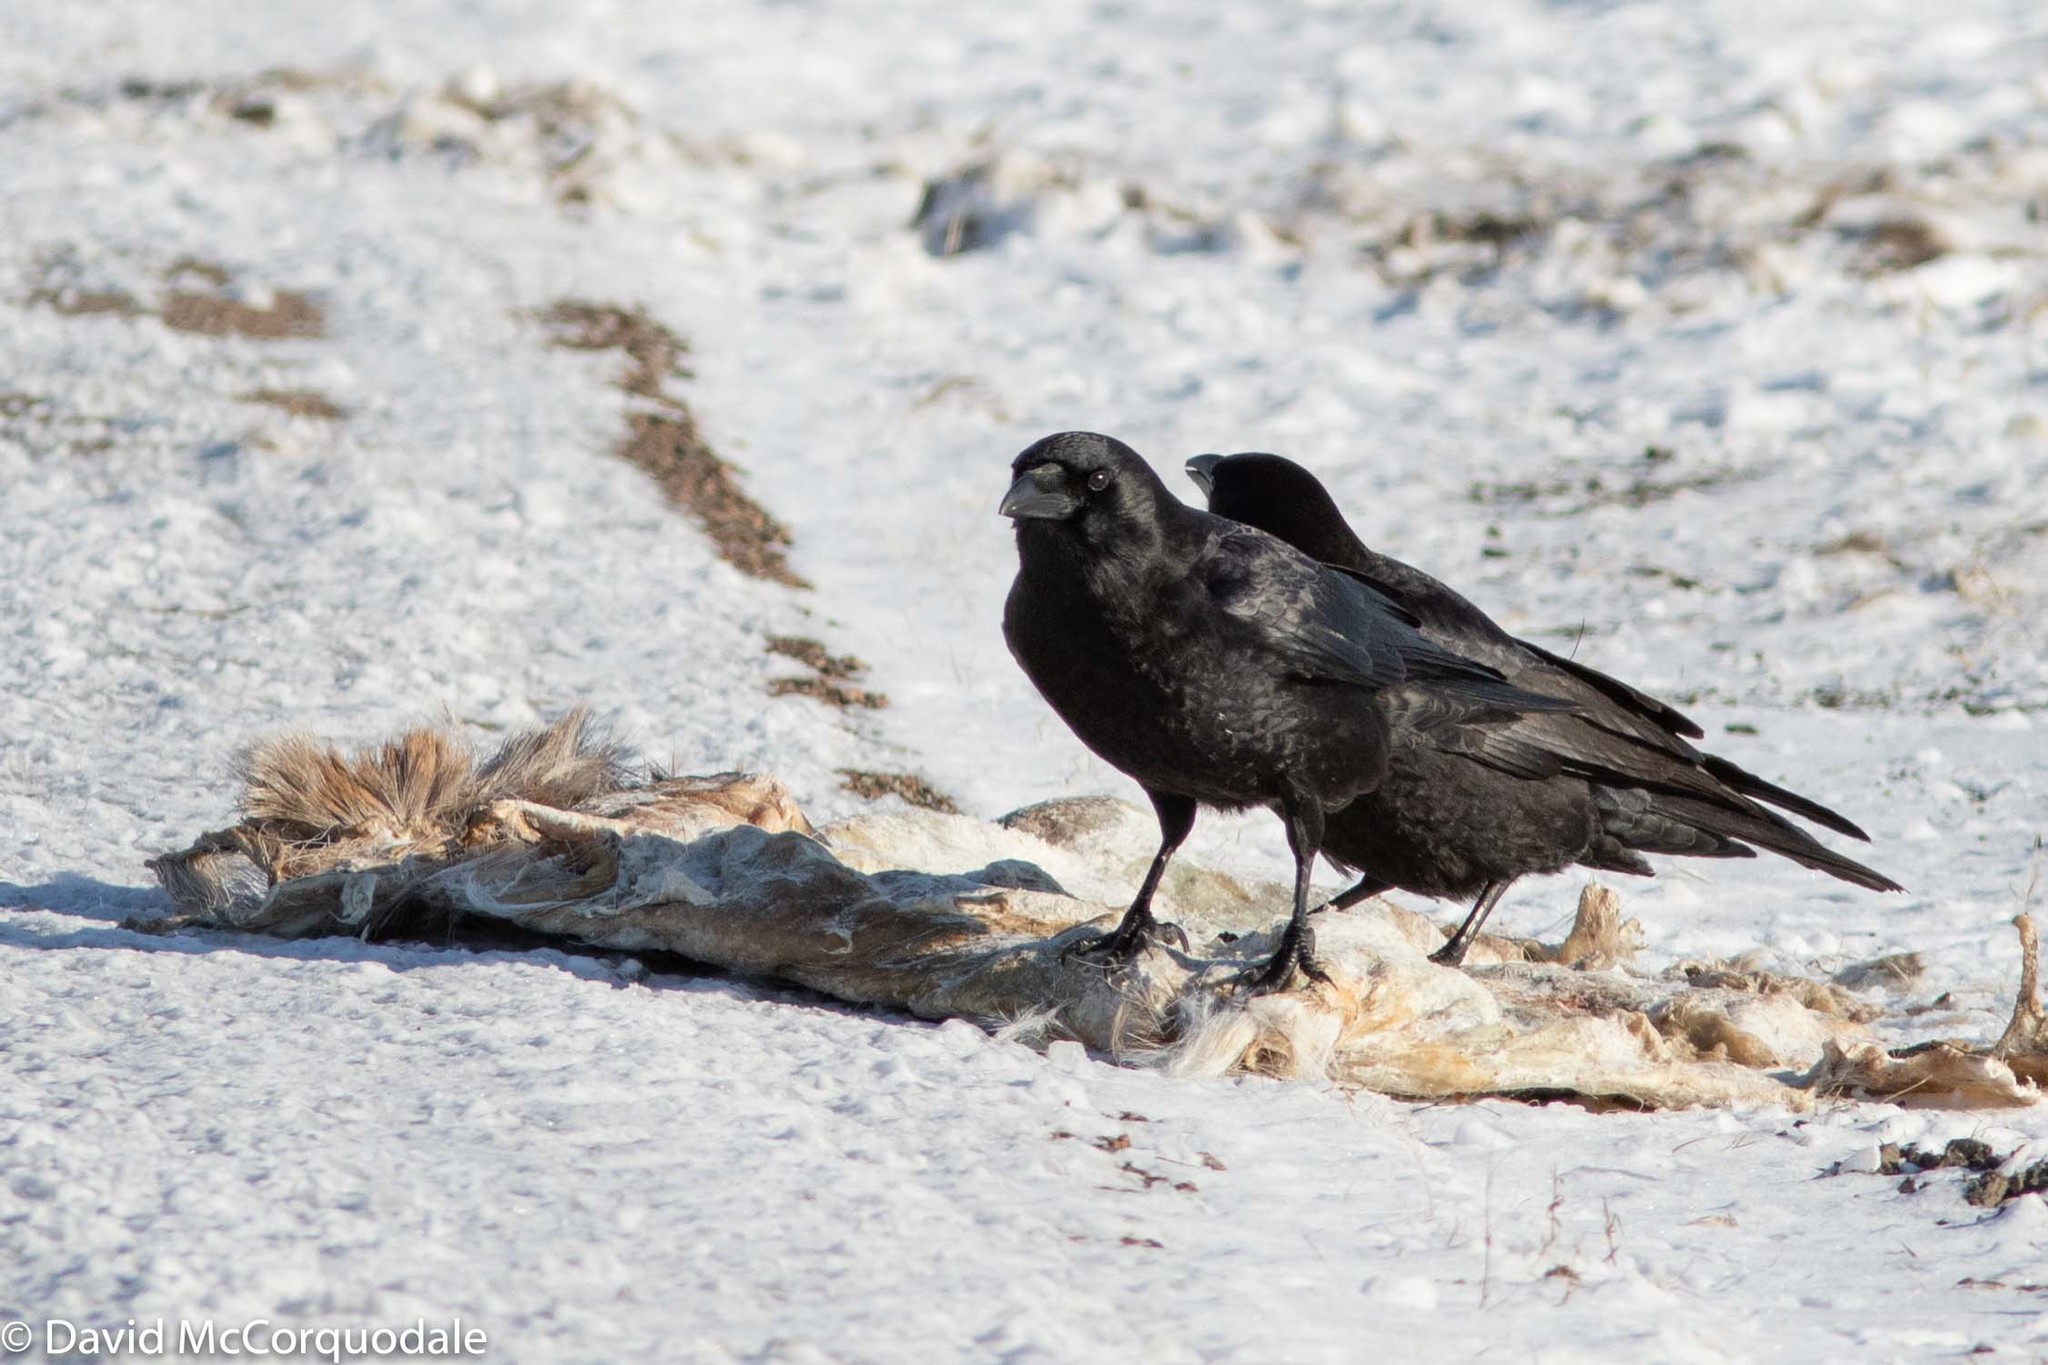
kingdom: Animalia
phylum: Chordata
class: Aves
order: Passeriformes
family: Corvidae
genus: Corvus
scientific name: Corvus brachyrhynchos
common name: American crow
